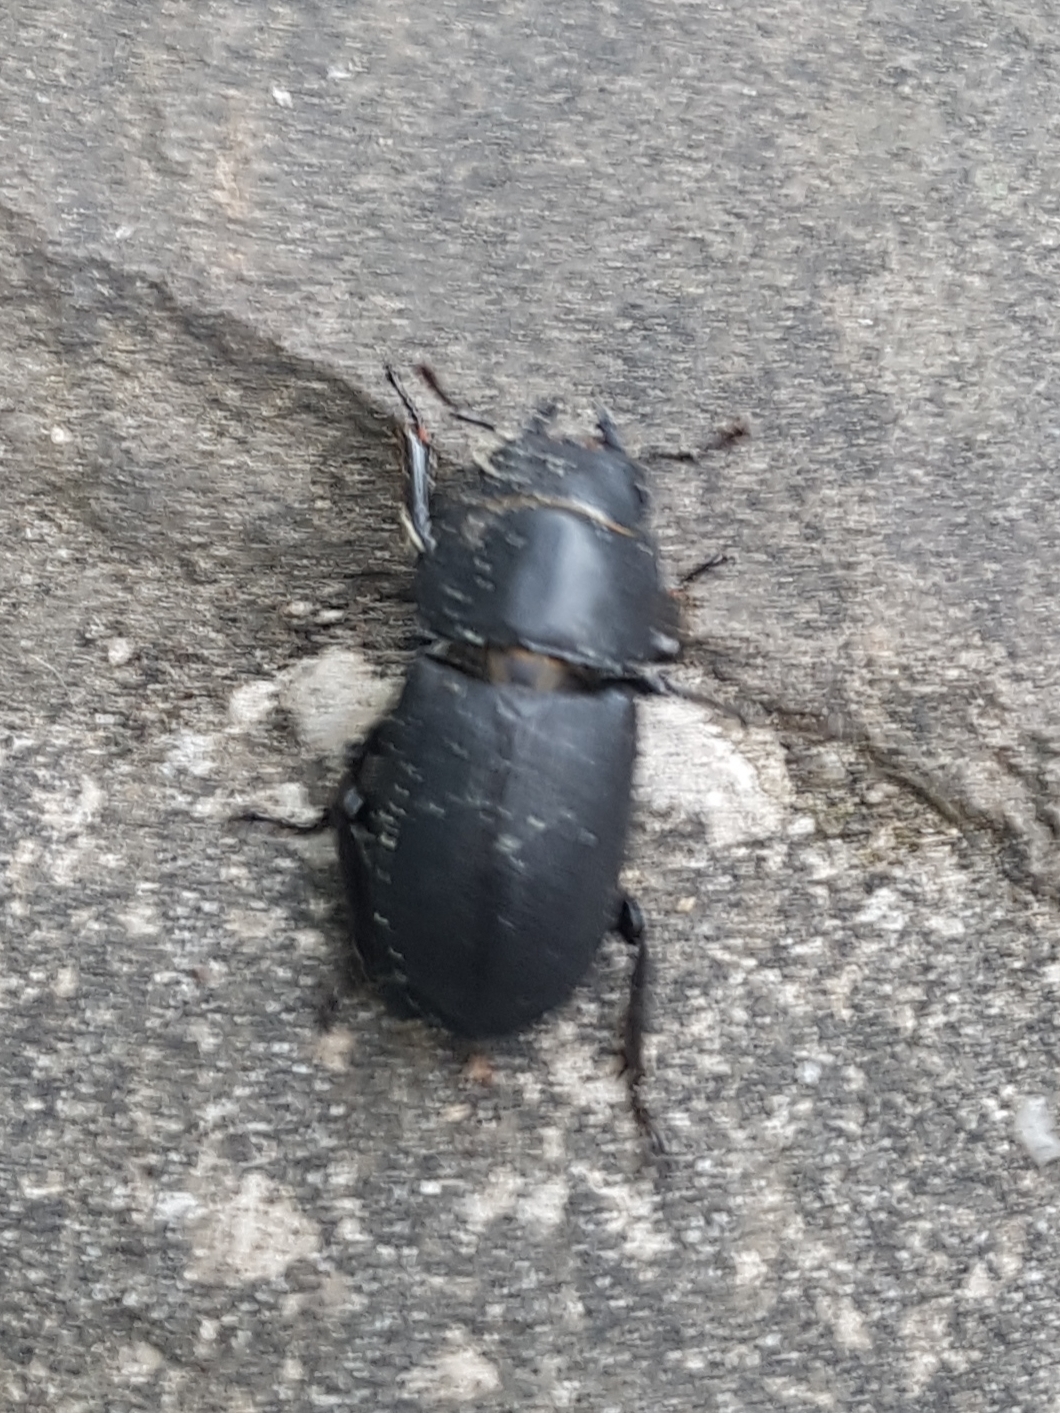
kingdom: Animalia
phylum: Arthropoda
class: Insecta
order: Coleoptera
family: Lucanidae
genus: Dorcus
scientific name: Dorcus parallelipipedus
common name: Lesser stag beetle
